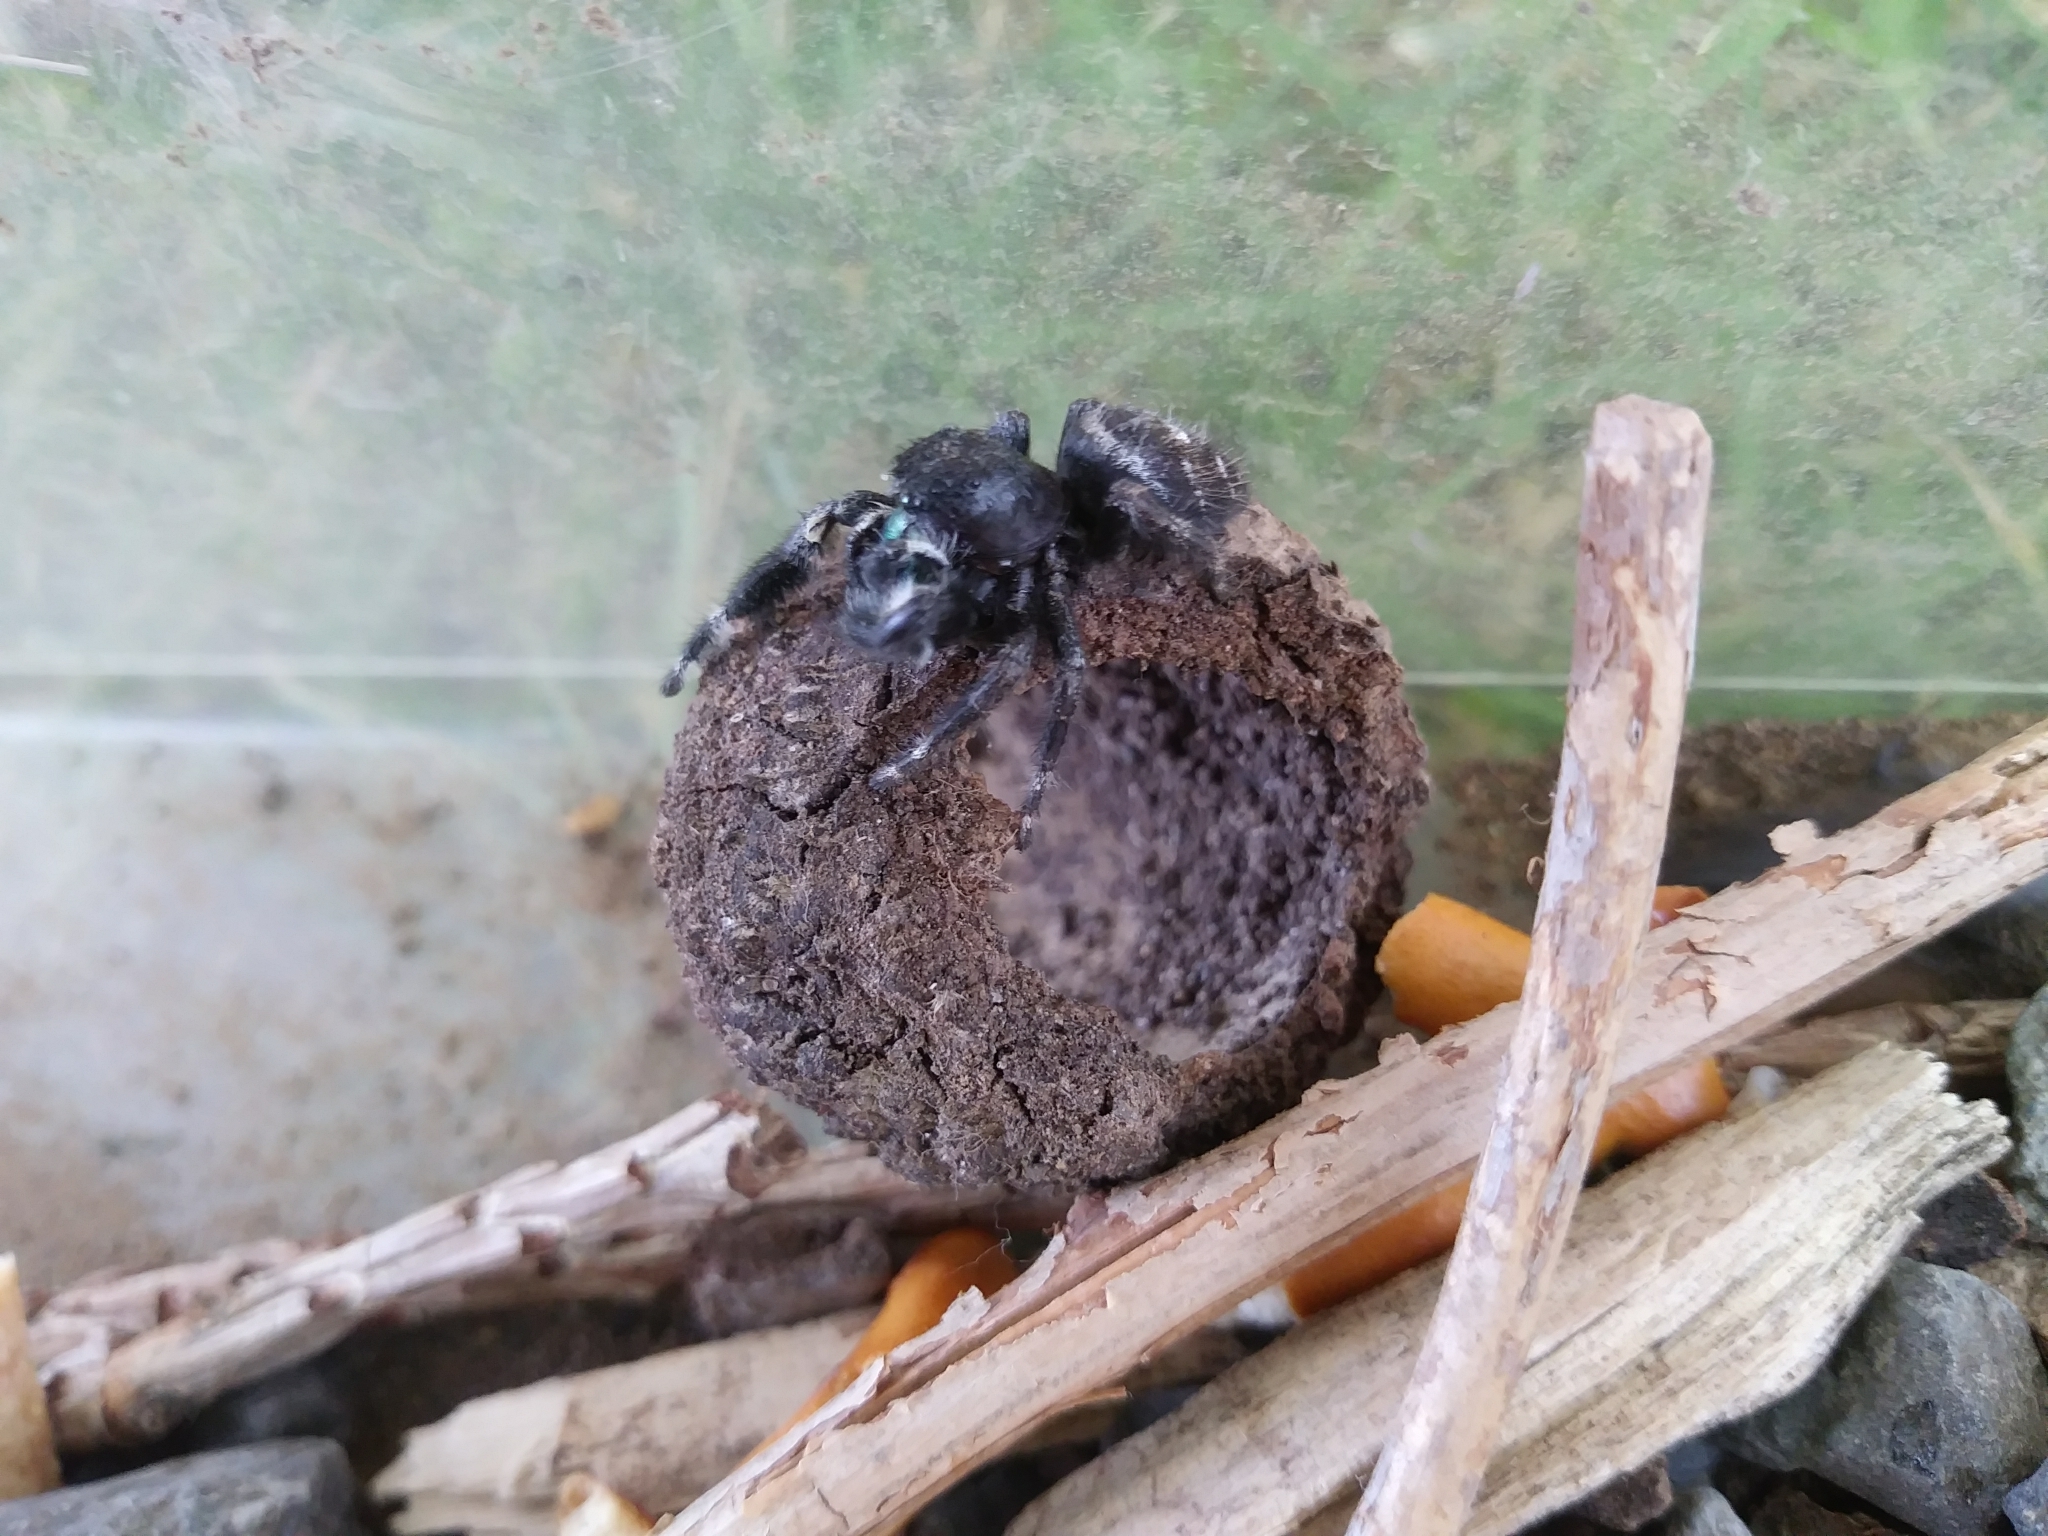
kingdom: Animalia
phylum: Arthropoda
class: Arachnida
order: Araneae
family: Salticidae
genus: Phidippus
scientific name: Phidippus audax
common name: Bold jumper
